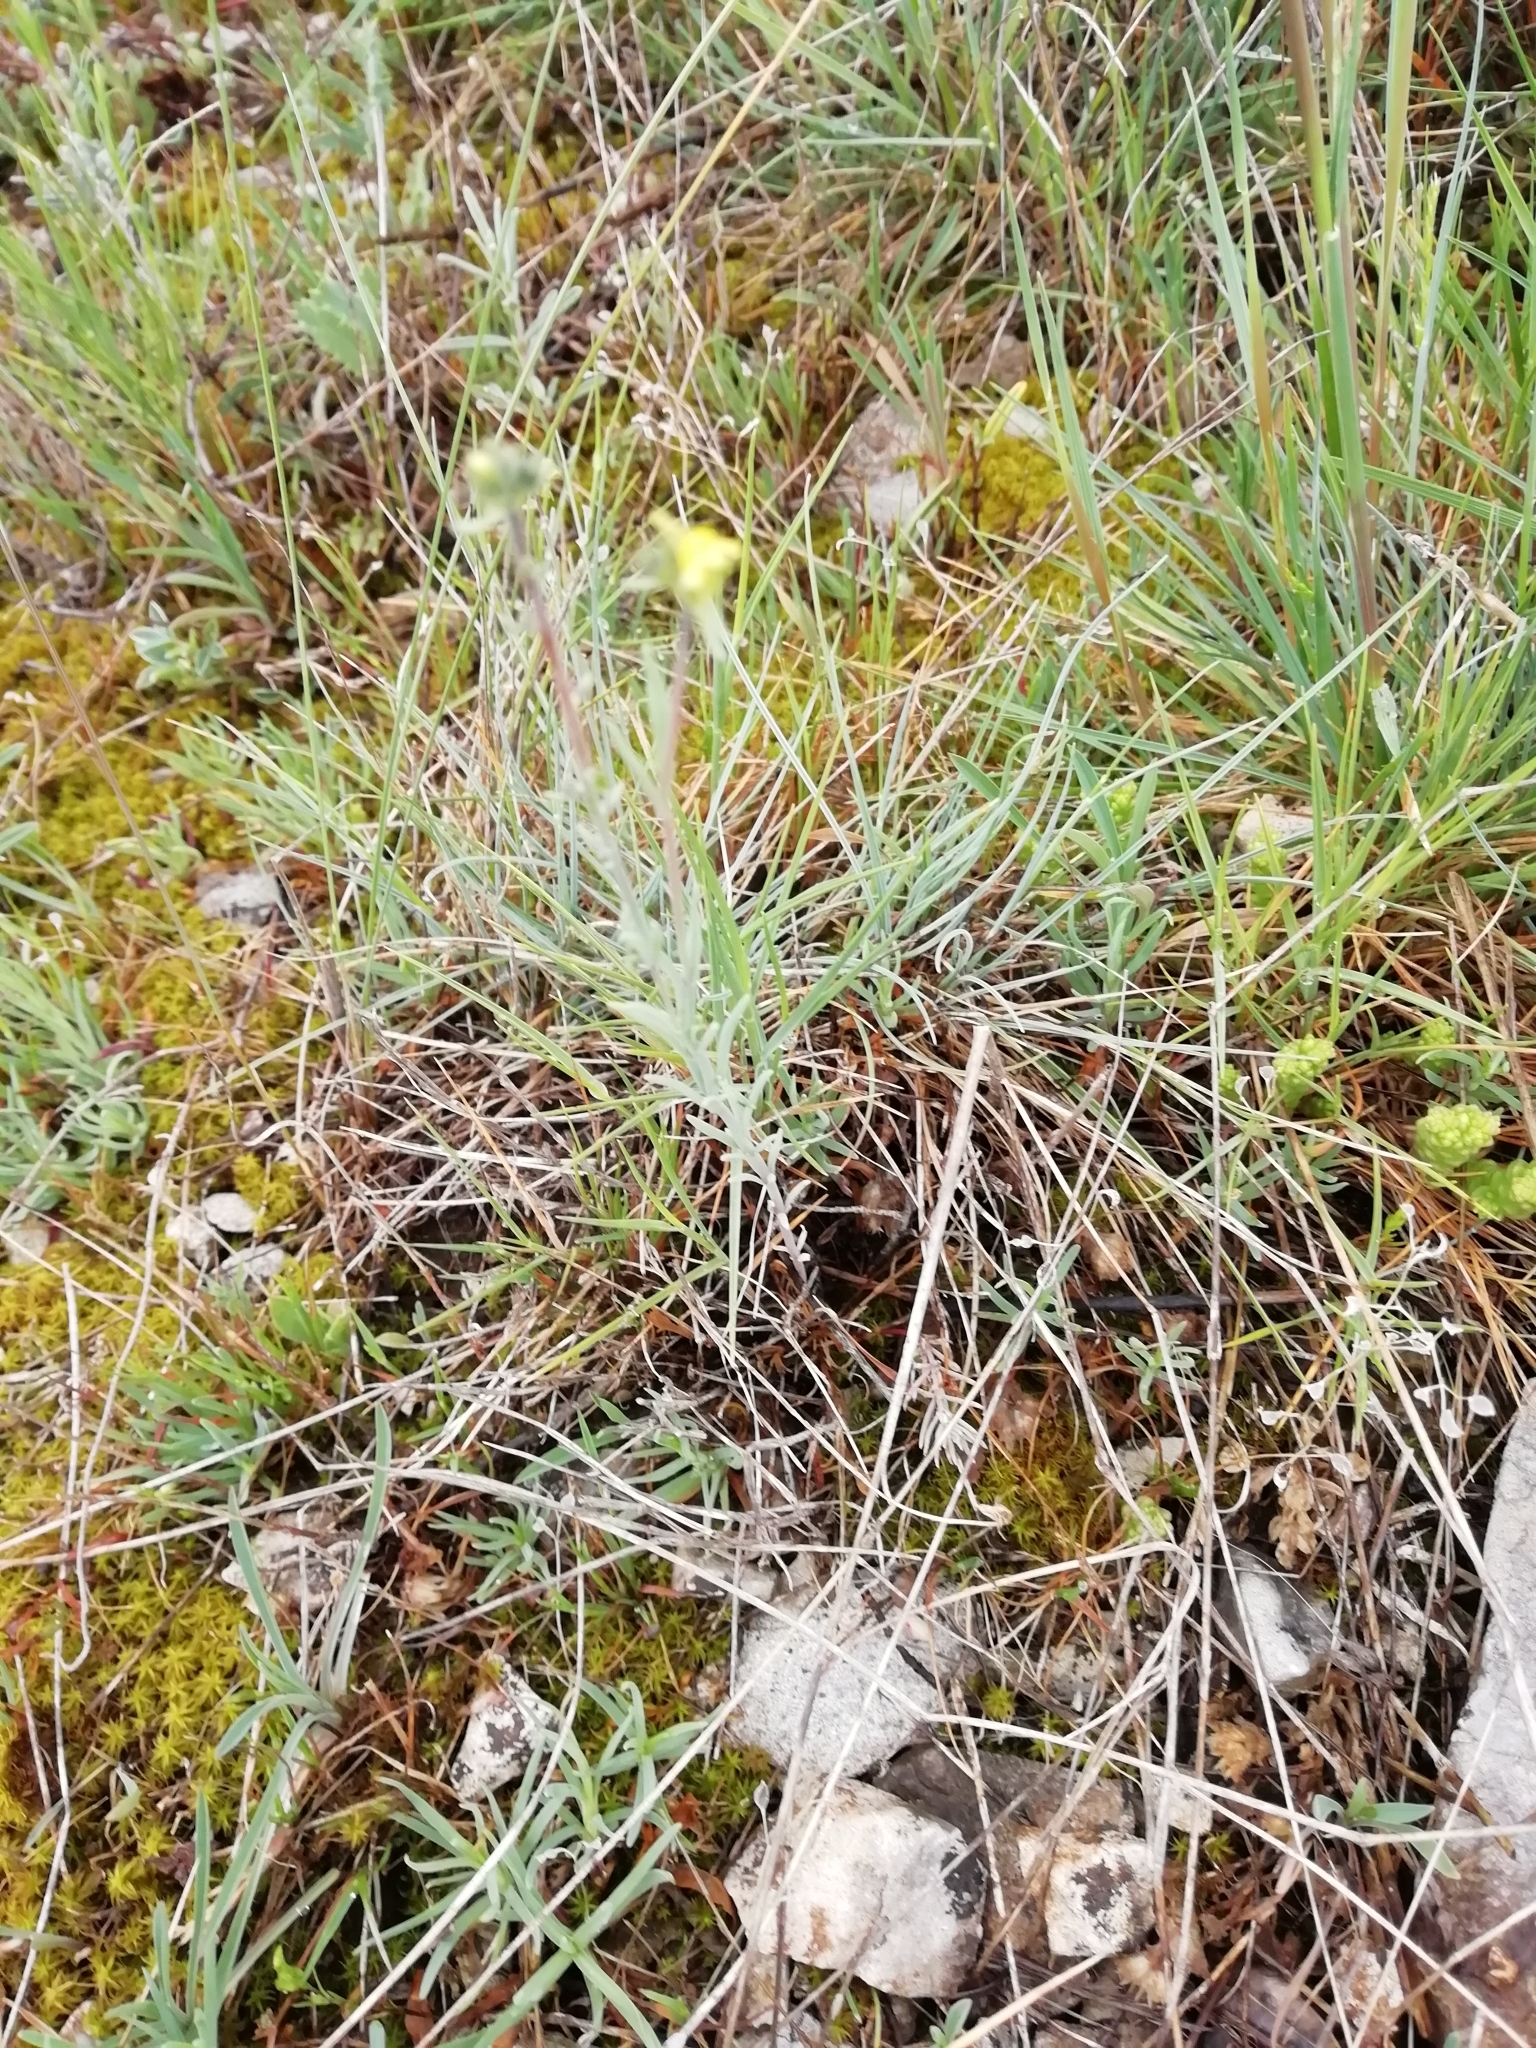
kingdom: Plantae
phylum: Tracheophyta
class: Magnoliopsida
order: Lamiales
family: Plantaginaceae
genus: Linaria
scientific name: Linaria simplex
